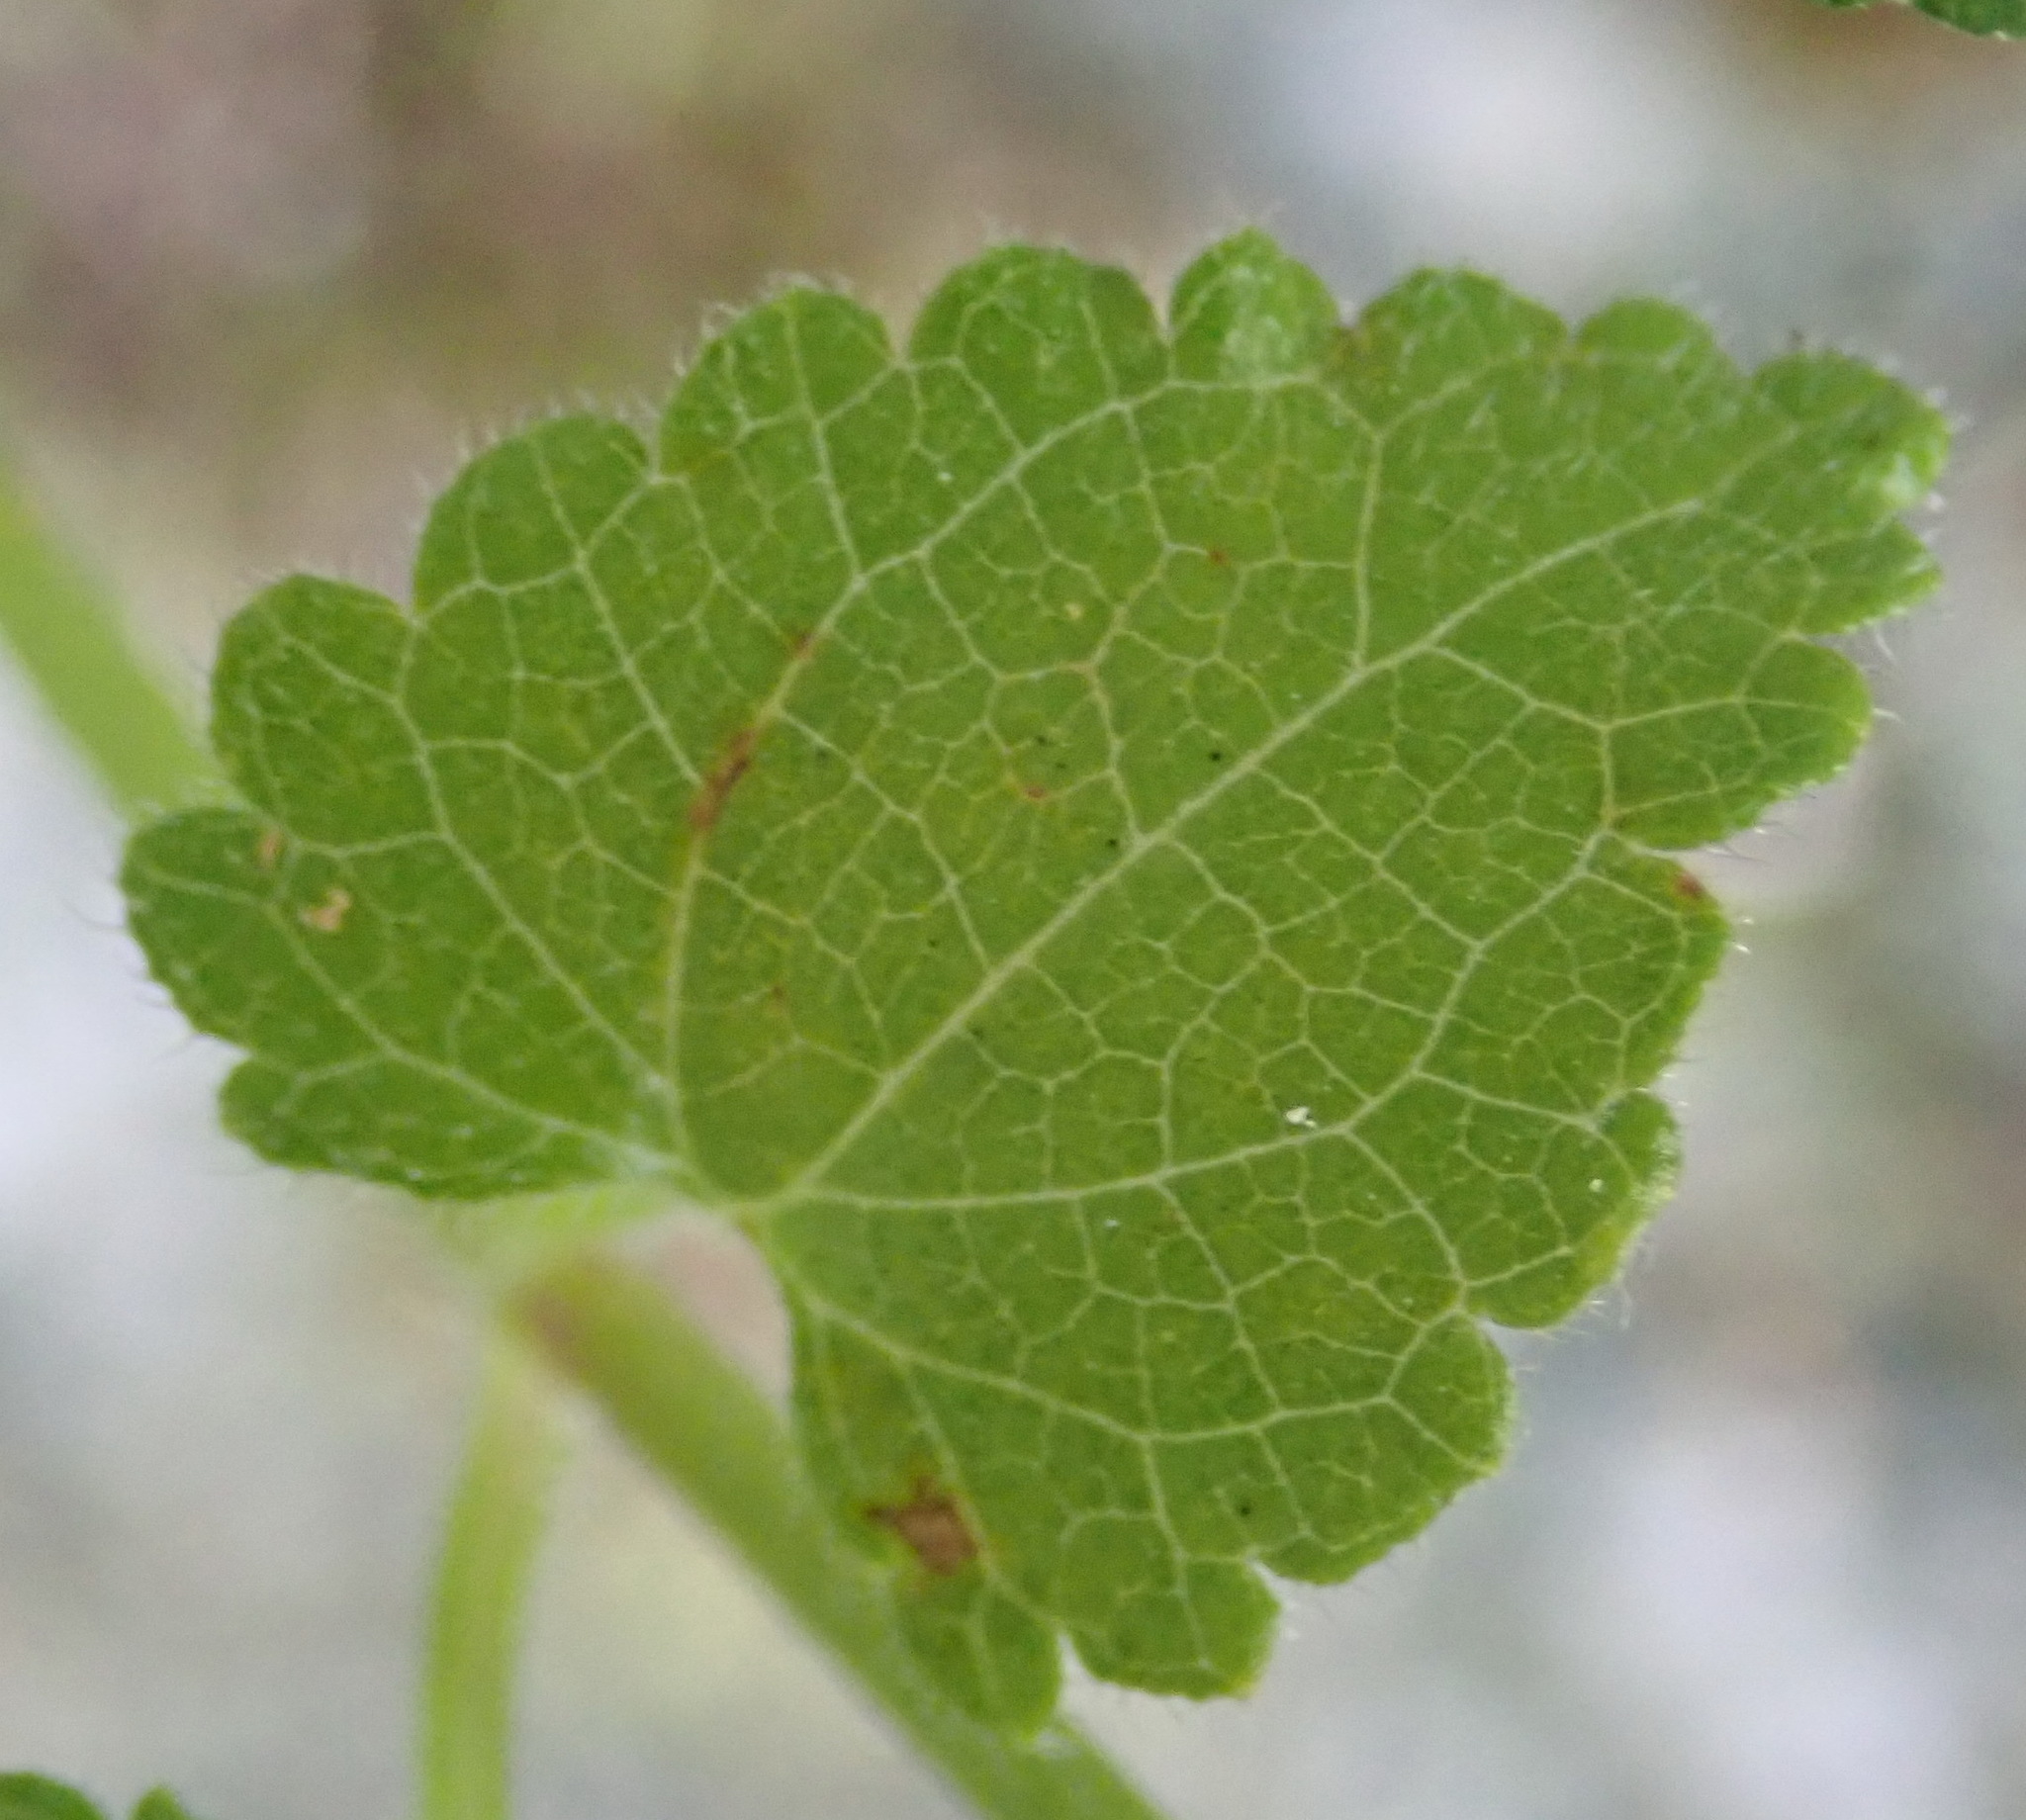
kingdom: Plantae
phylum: Tracheophyta
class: Magnoliopsida
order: Lamiales
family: Lamiaceae
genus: Stachys
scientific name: Stachys aethiopica
